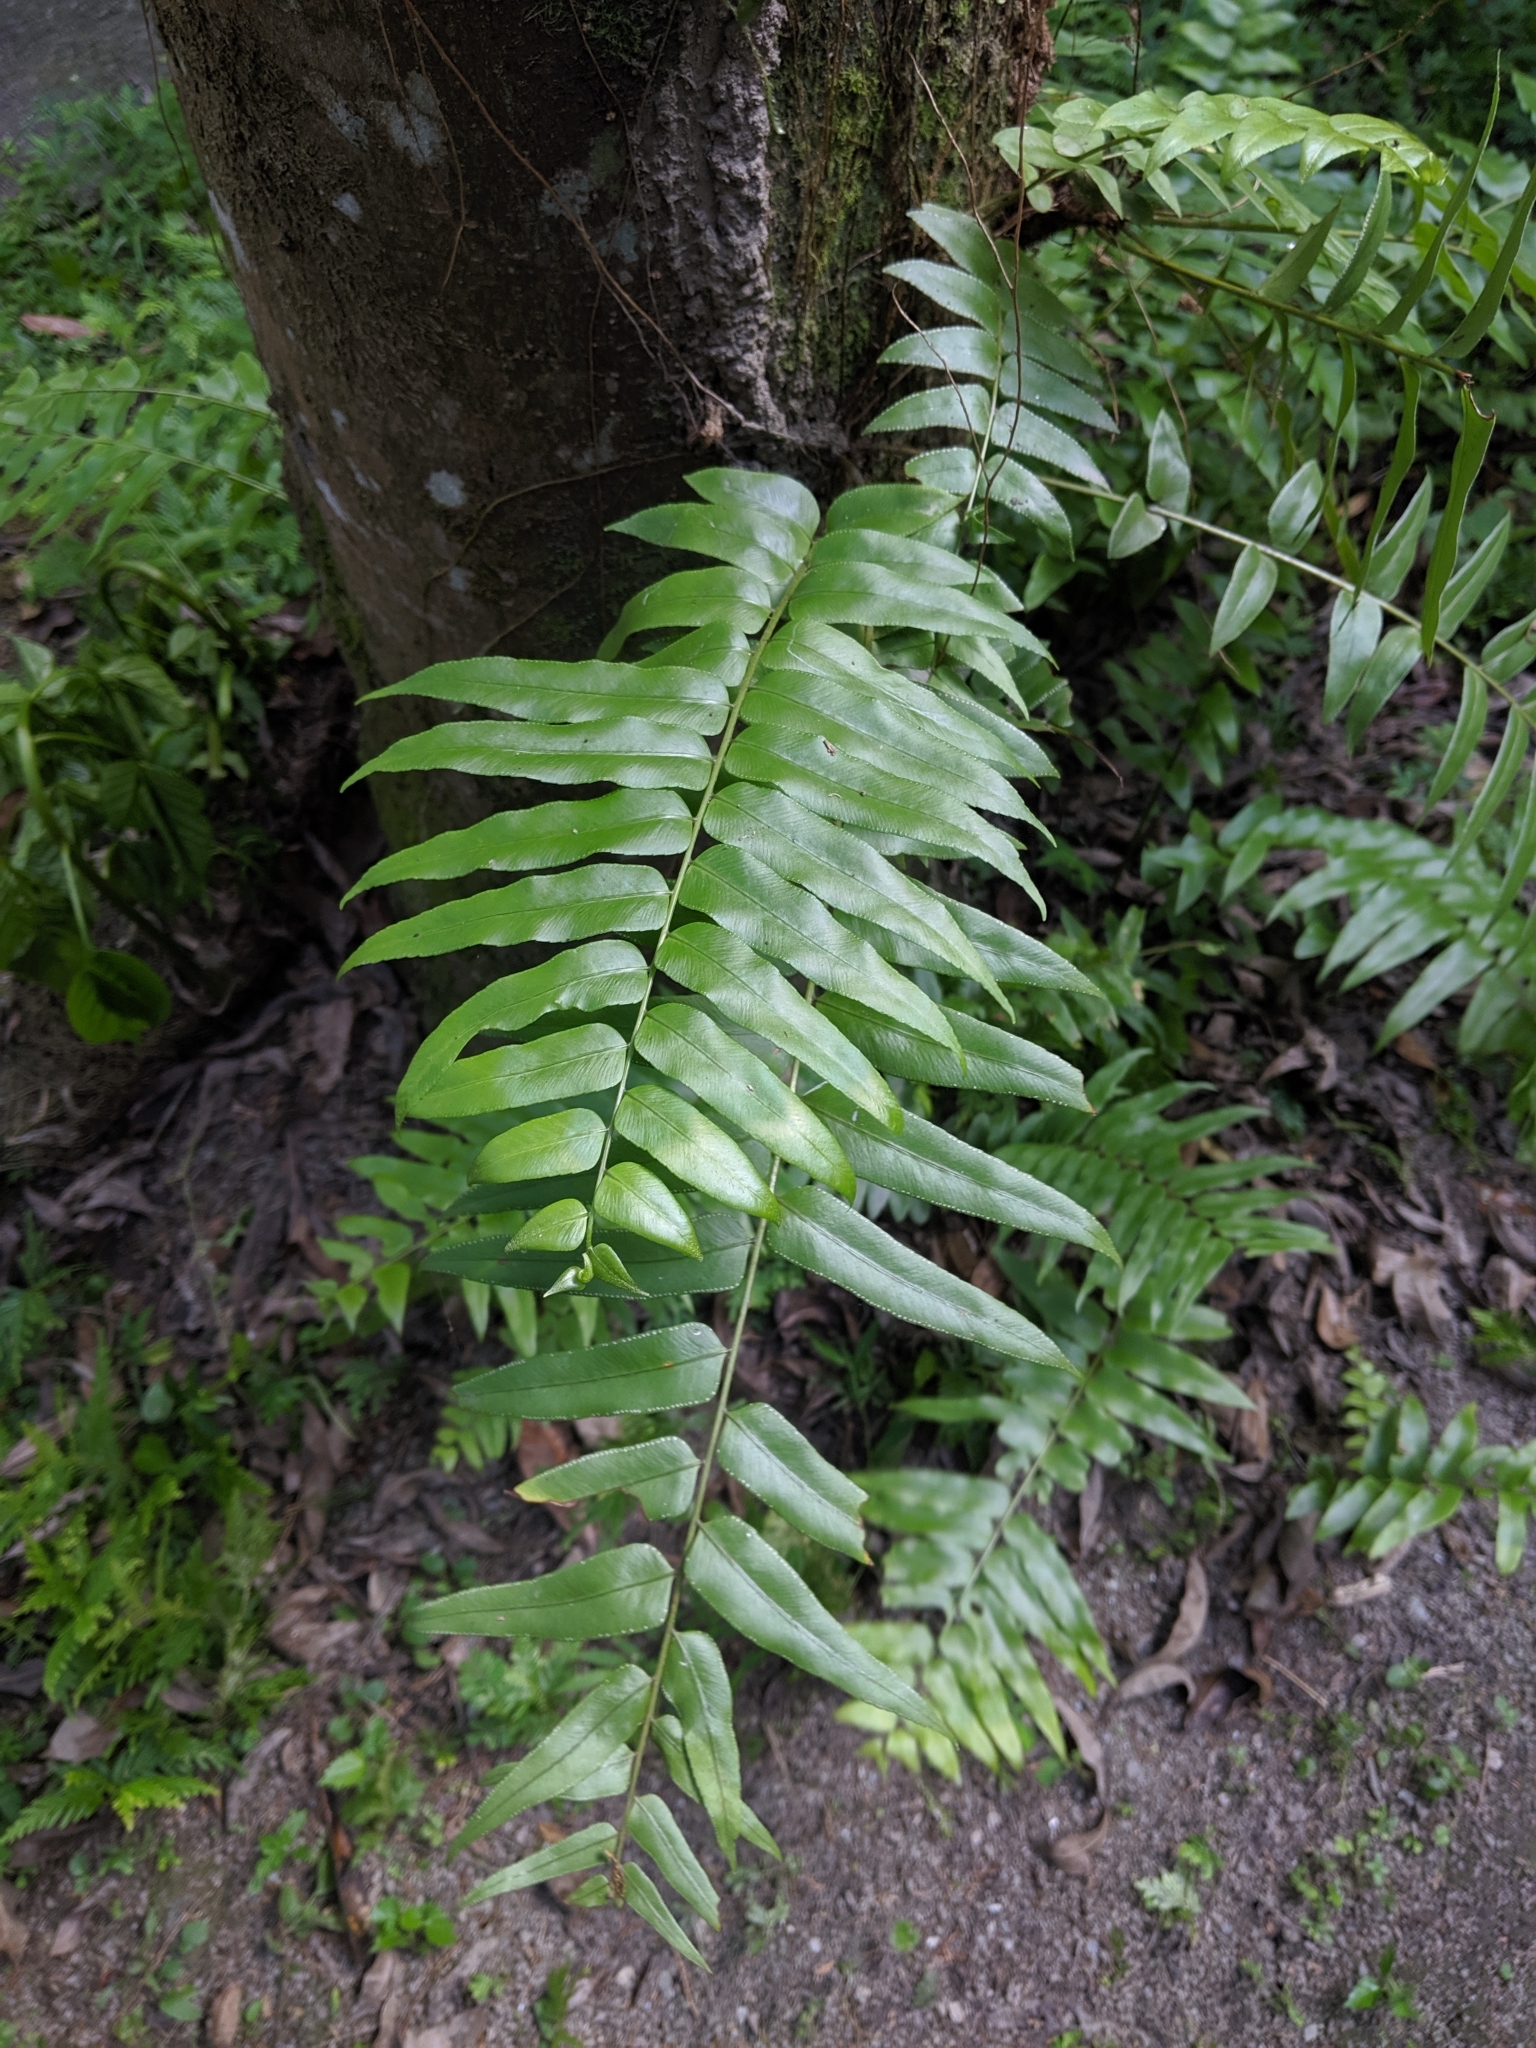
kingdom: Plantae
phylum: Tracheophyta
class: Polypodiopsida
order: Polypodiales
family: Nephrolepidaceae
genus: Nephrolepis
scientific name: Nephrolepis biserrata
